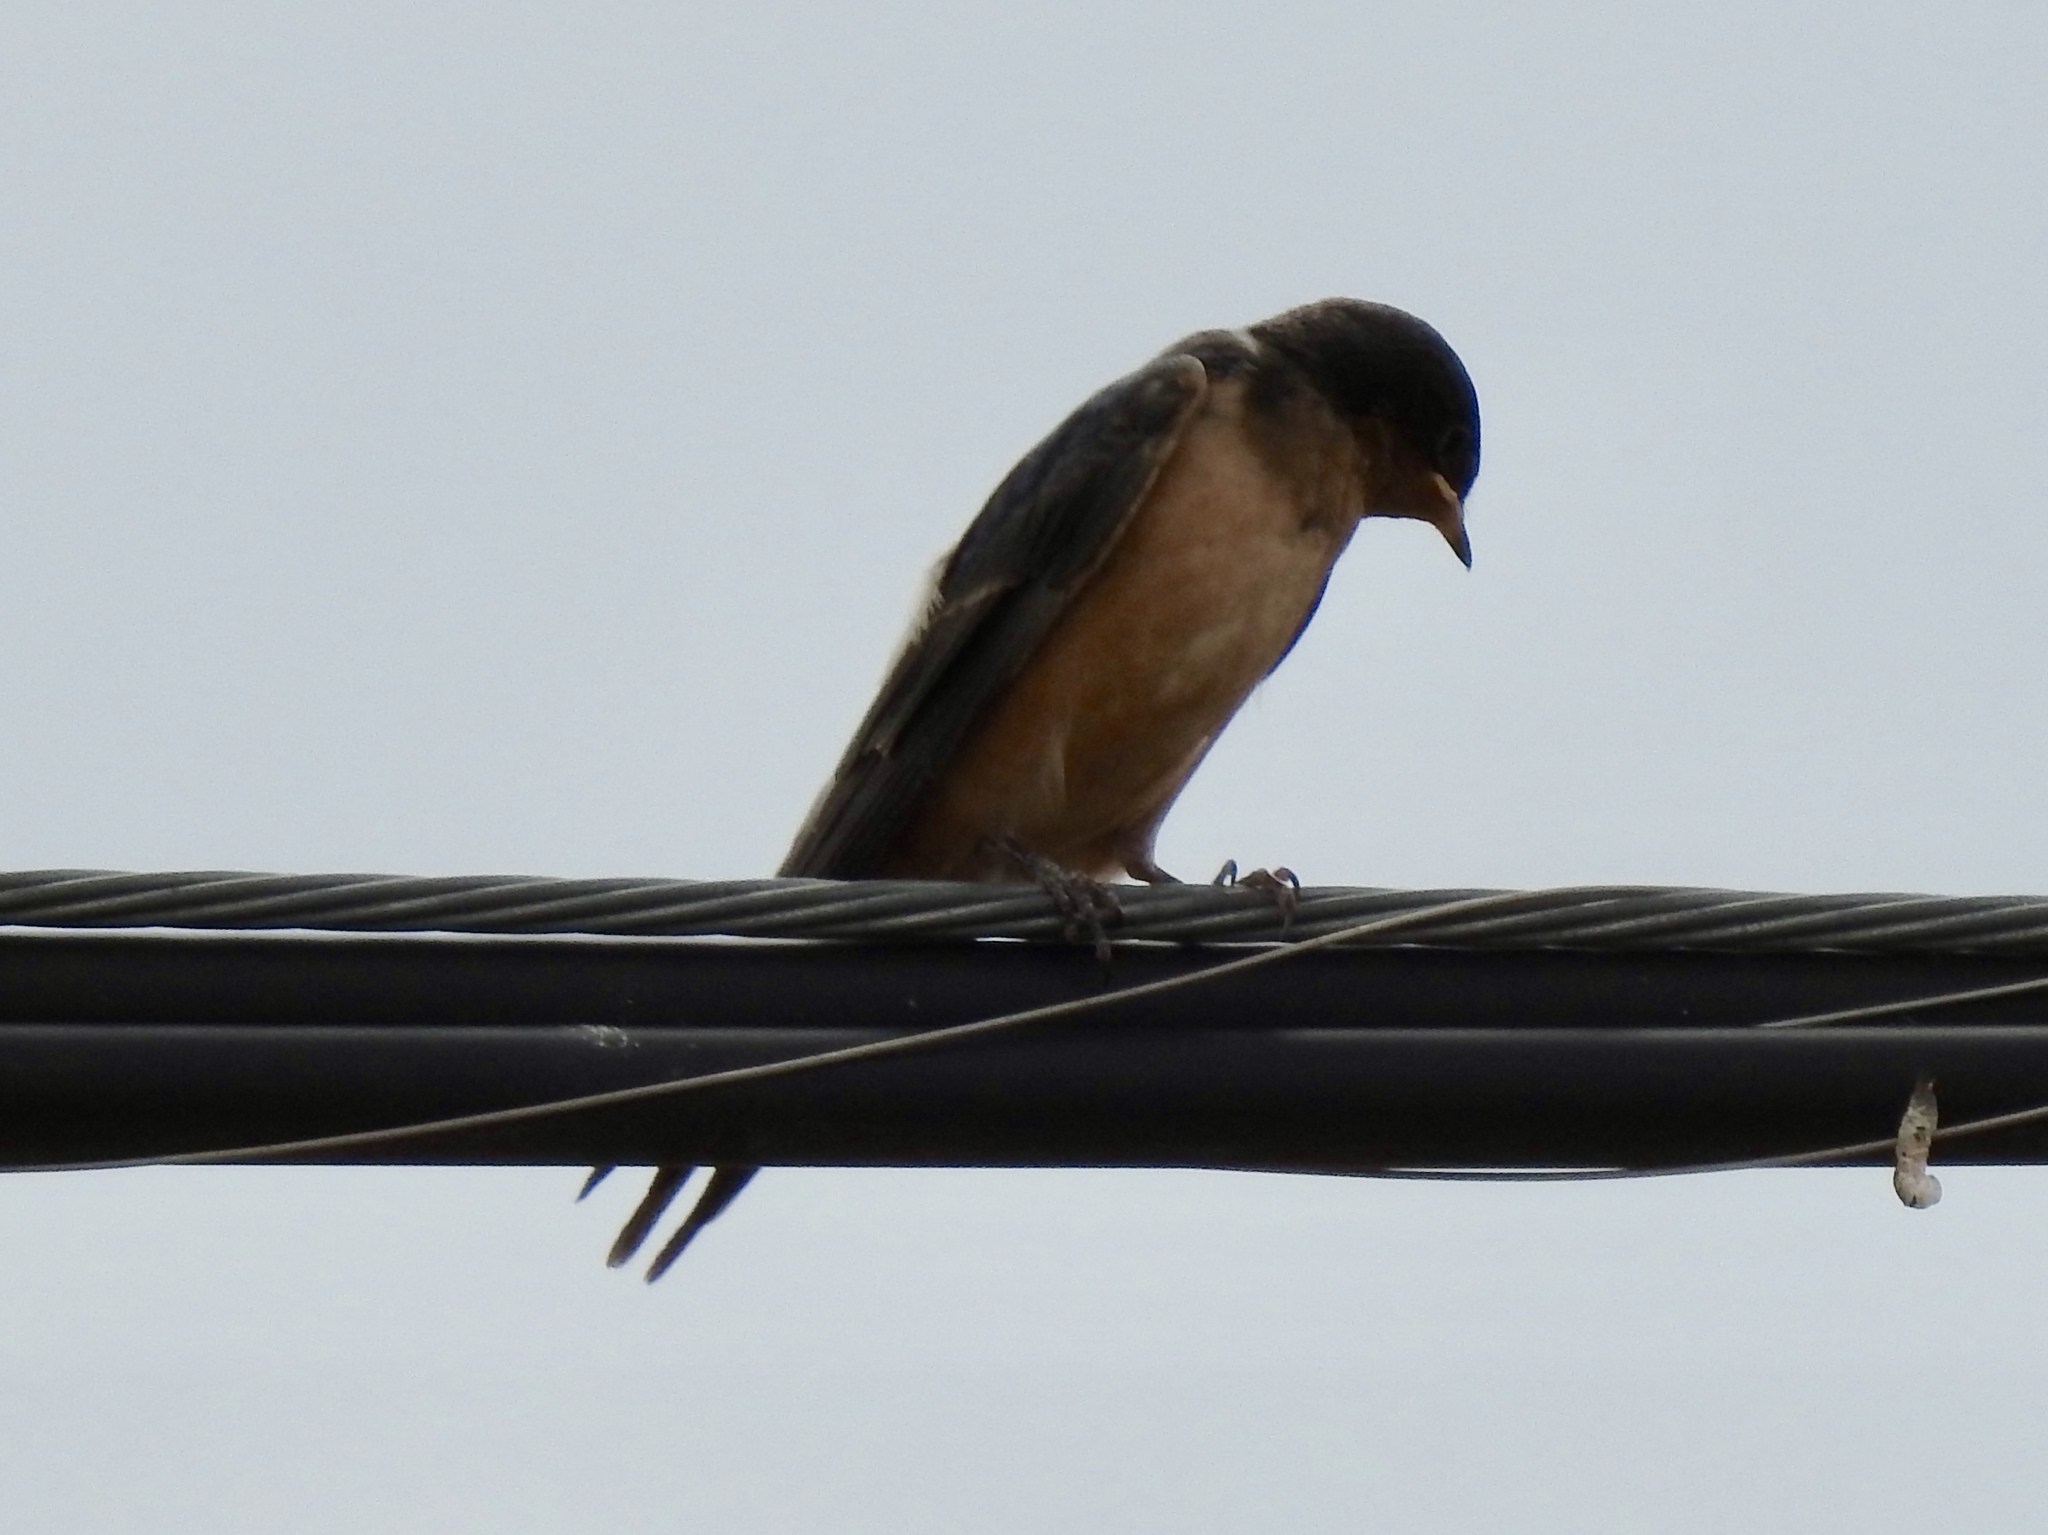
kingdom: Animalia
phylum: Chordata
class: Aves
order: Passeriformes
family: Hirundinidae
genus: Hirundo
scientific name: Hirundo rustica
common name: Barn swallow
